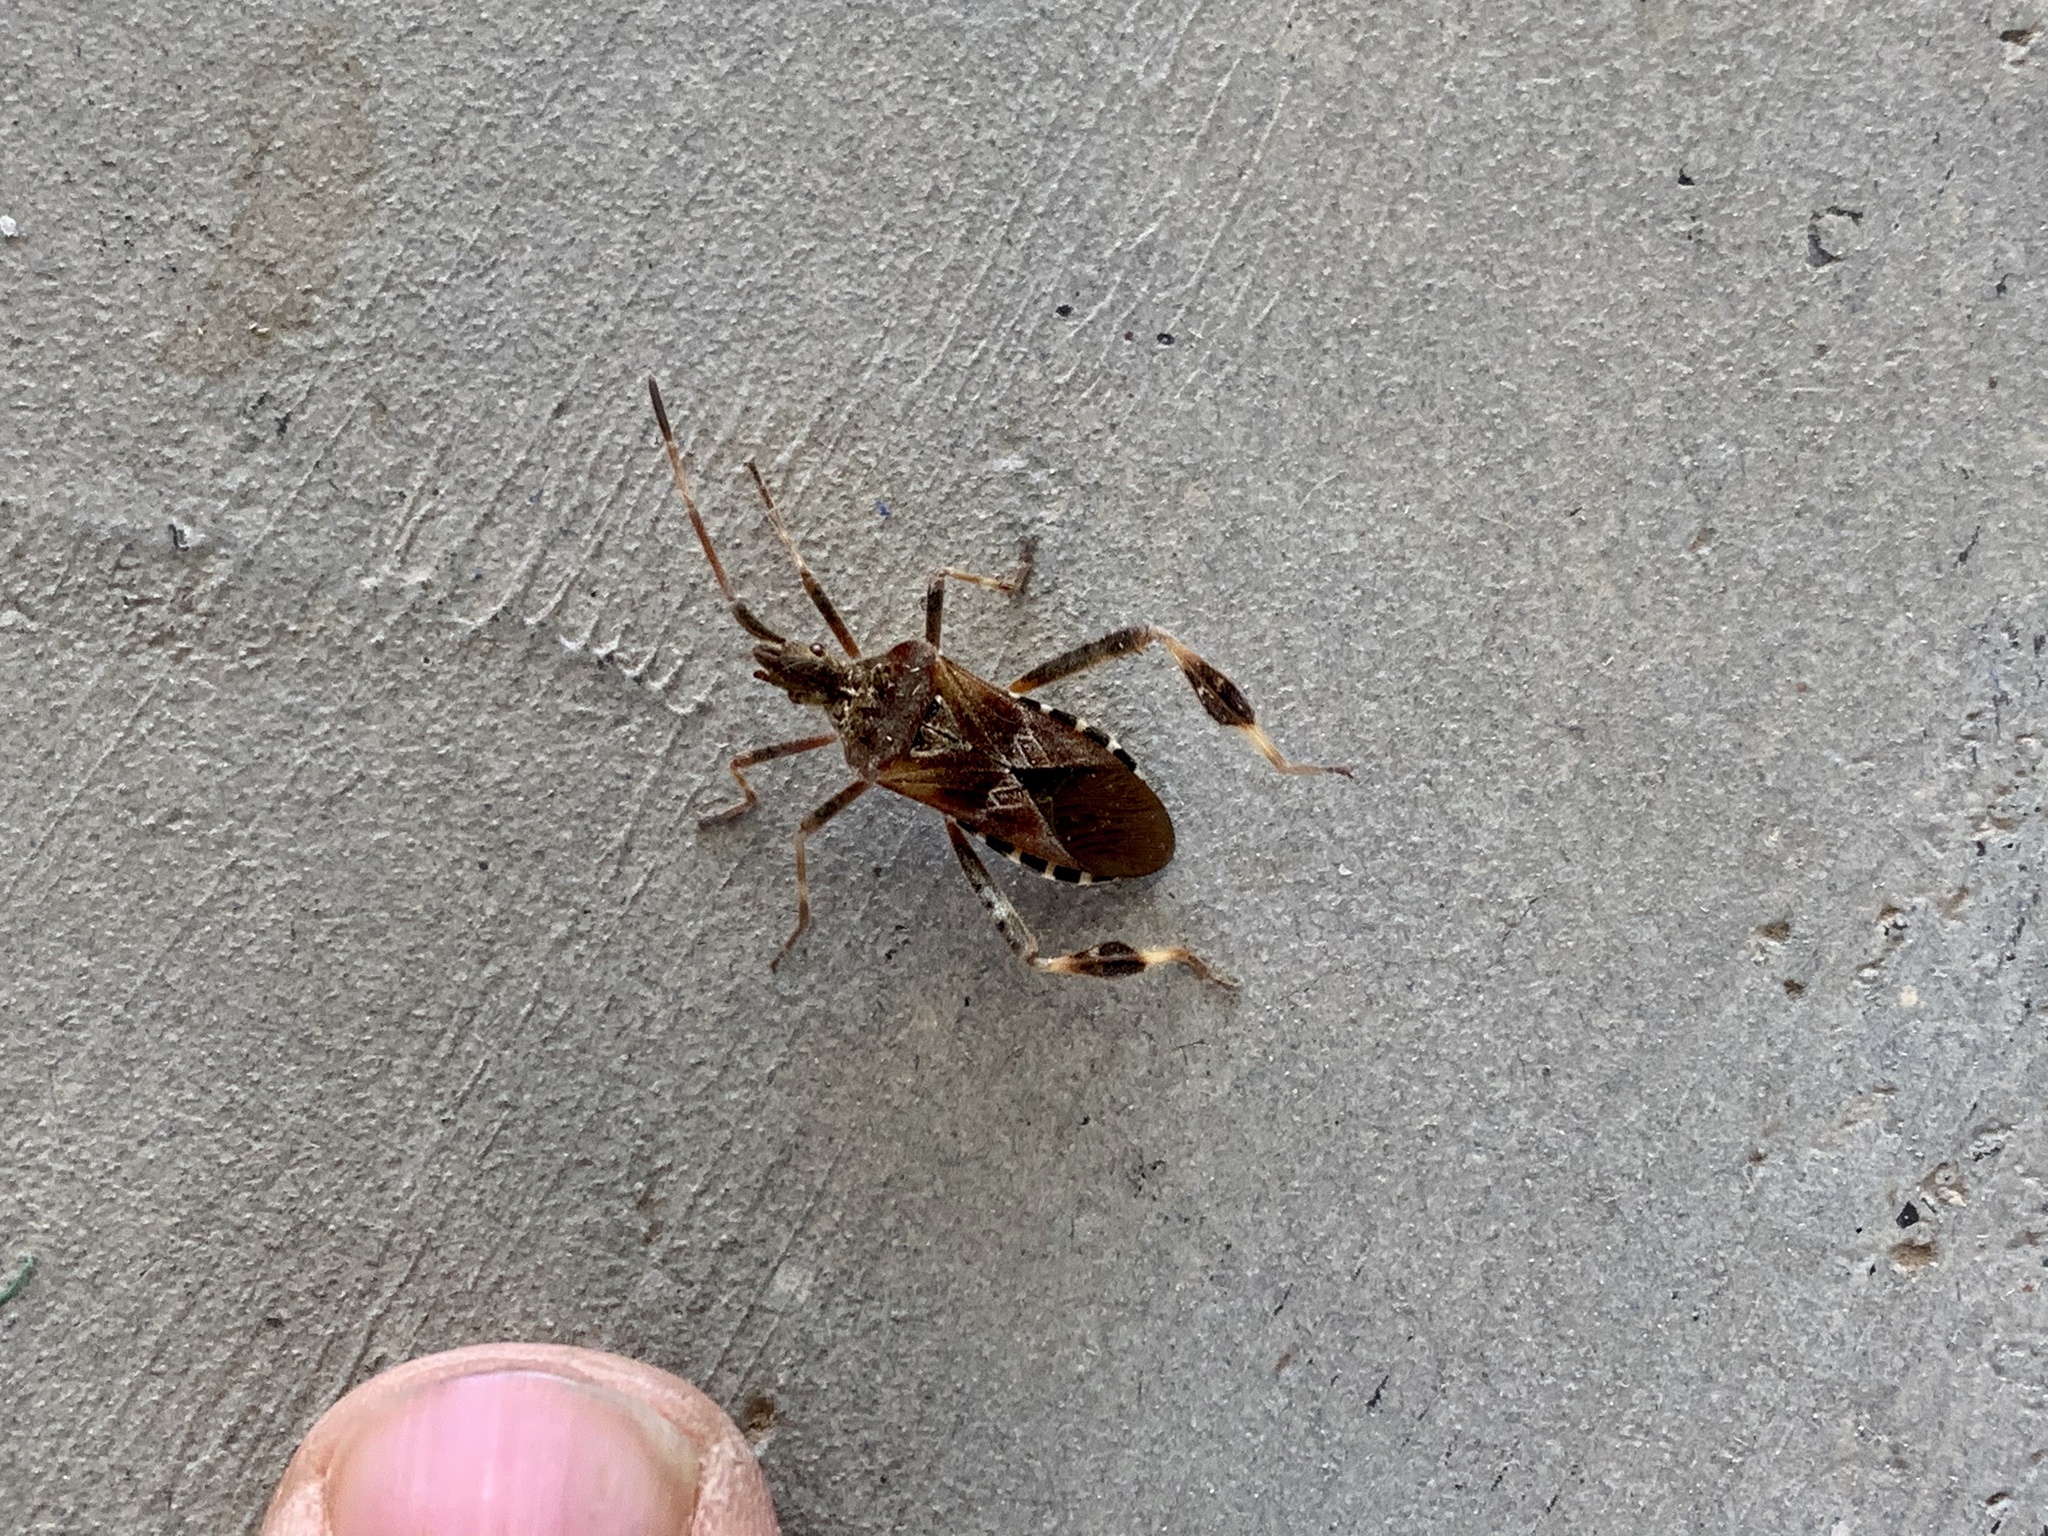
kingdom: Animalia
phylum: Arthropoda
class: Insecta
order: Hemiptera
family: Coreidae
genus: Leptoglossus
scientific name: Leptoglossus occidentalis
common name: Western conifer-seed bug
